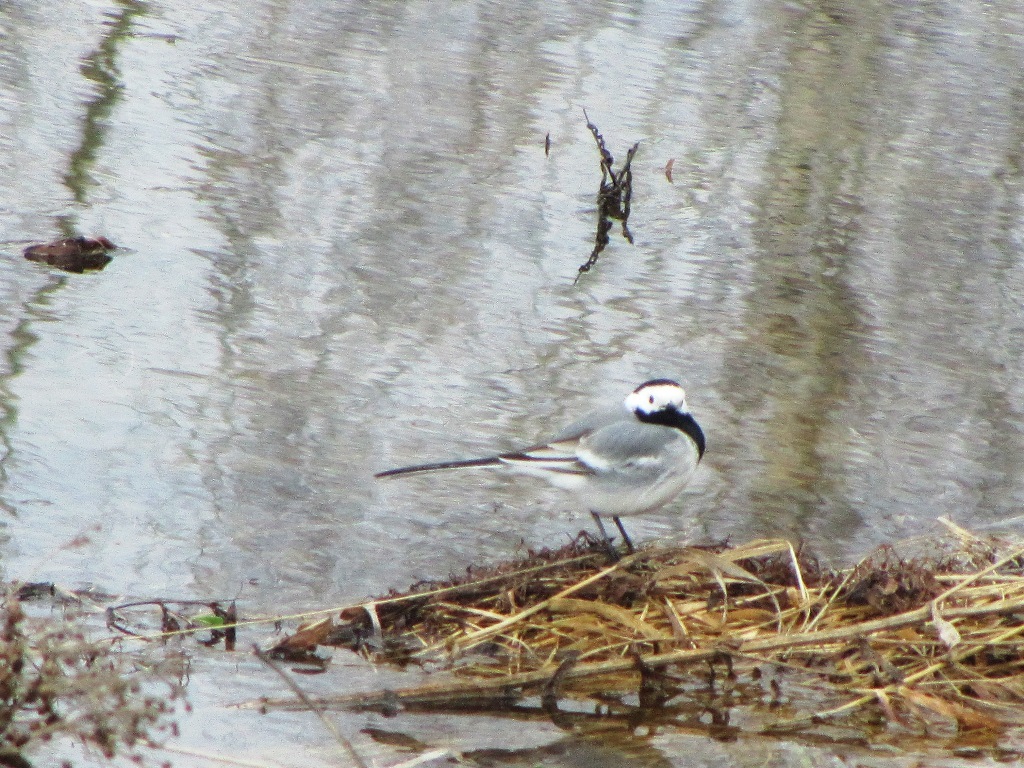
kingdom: Animalia
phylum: Chordata
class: Aves
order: Passeriformes
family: Motacillidae
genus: Motacilla
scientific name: Motacilla alba
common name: White wagtail
